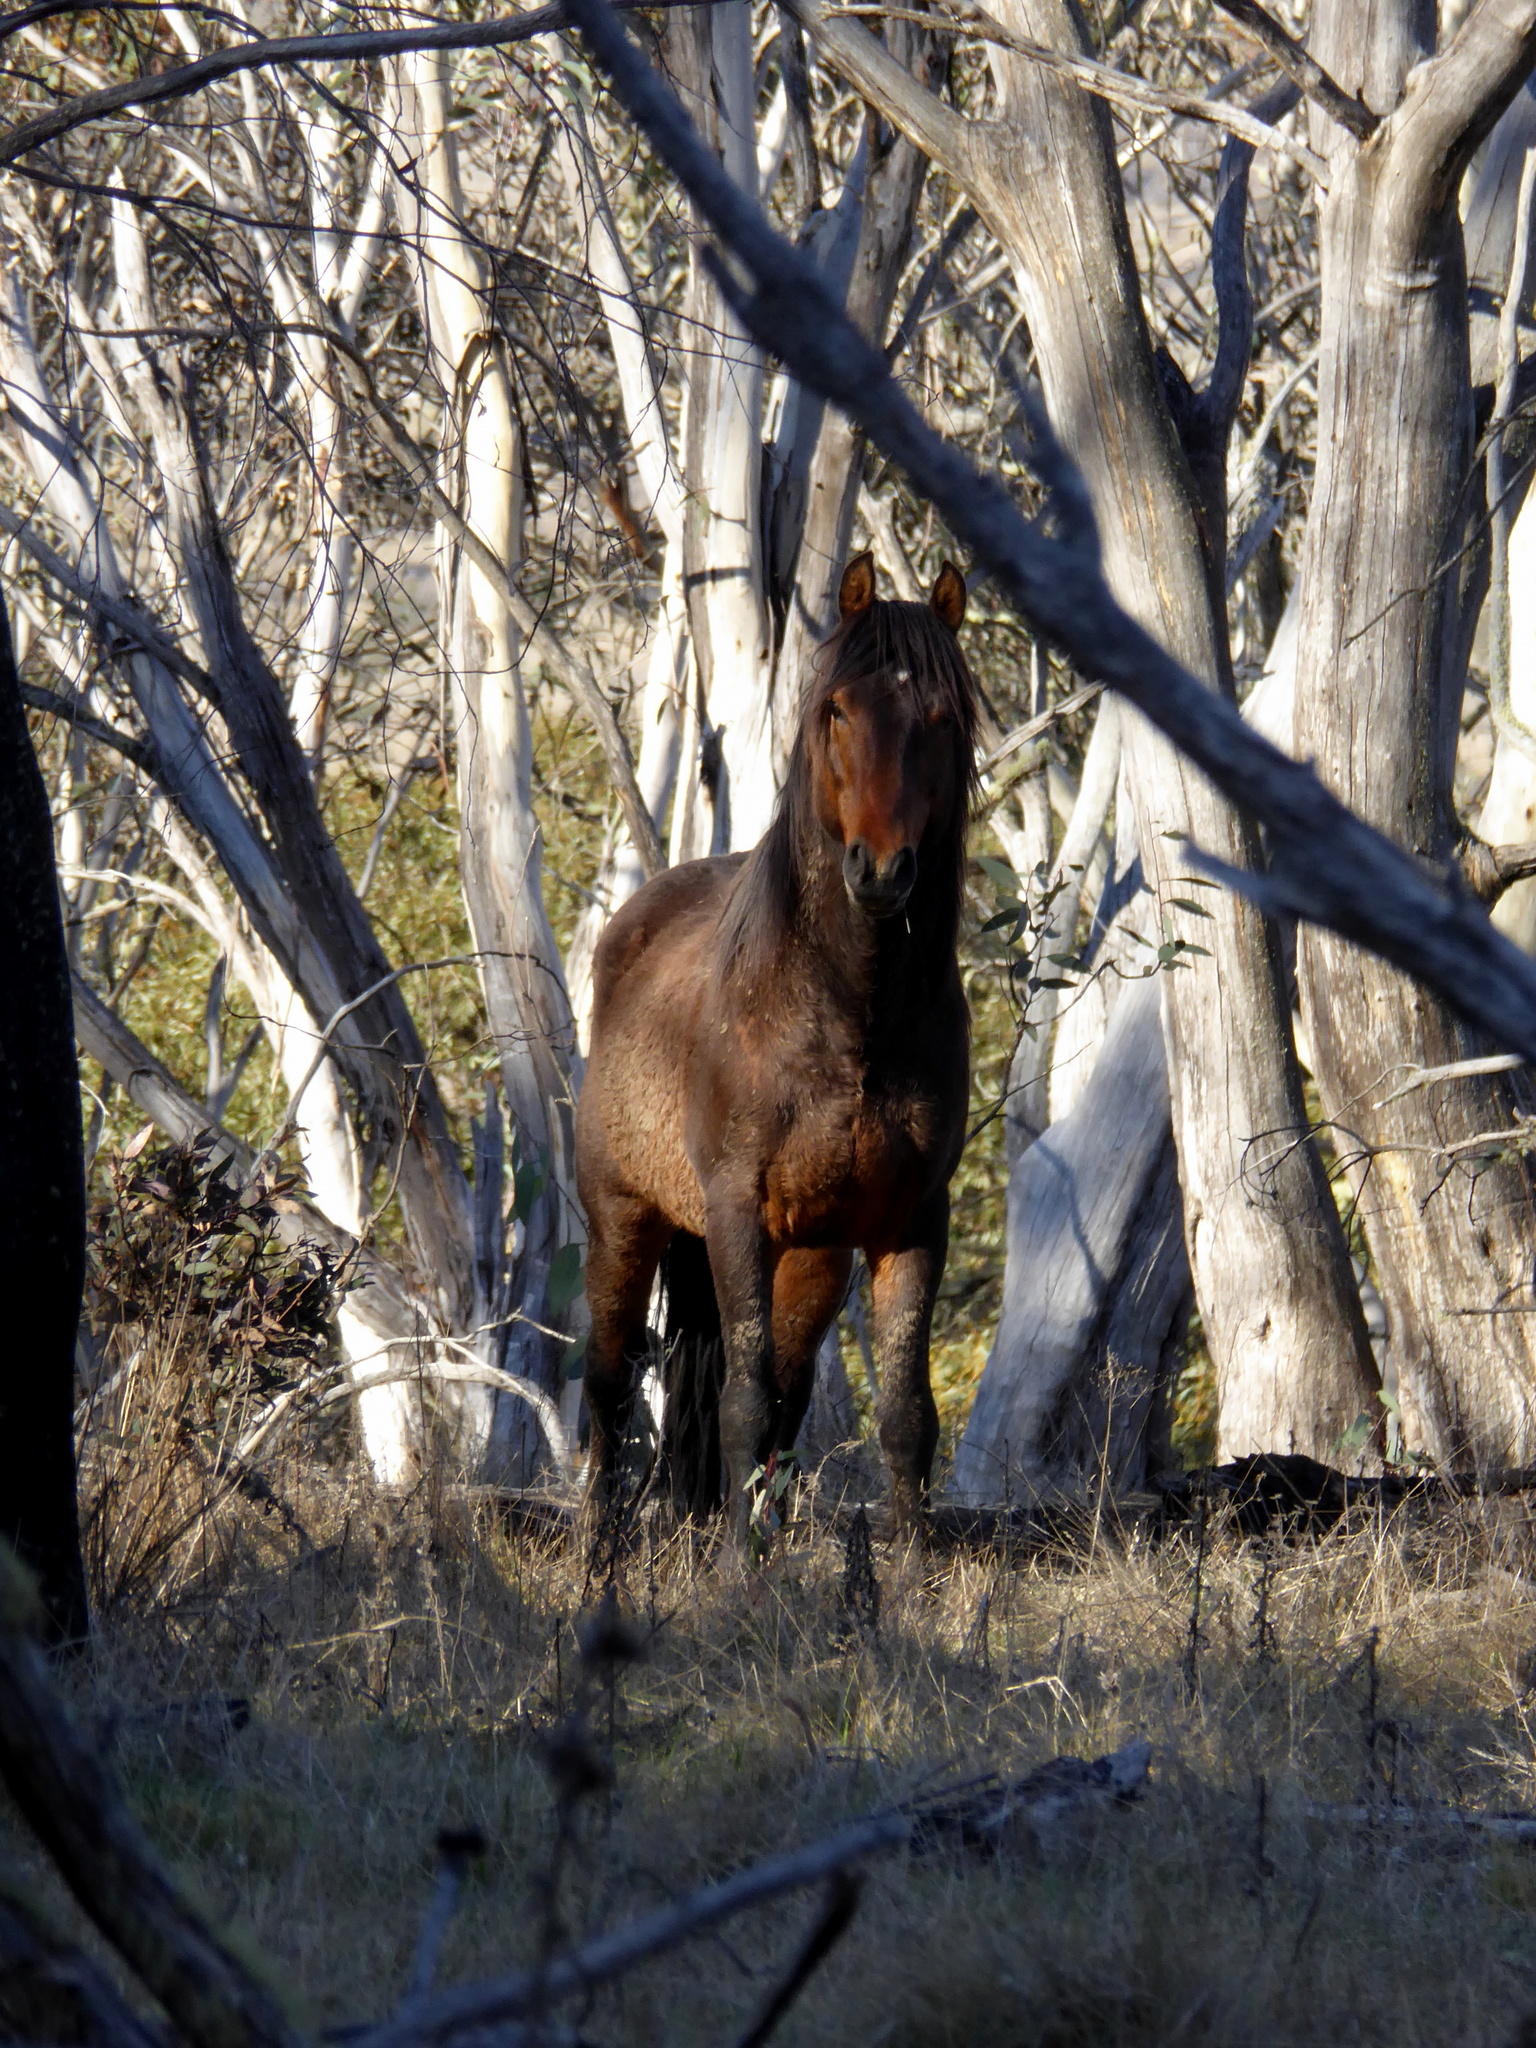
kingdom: Animalia
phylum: Chordata
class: Mammalia
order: Perissodactyla
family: Equidae
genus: Equus
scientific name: Equus caballus
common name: Horse
